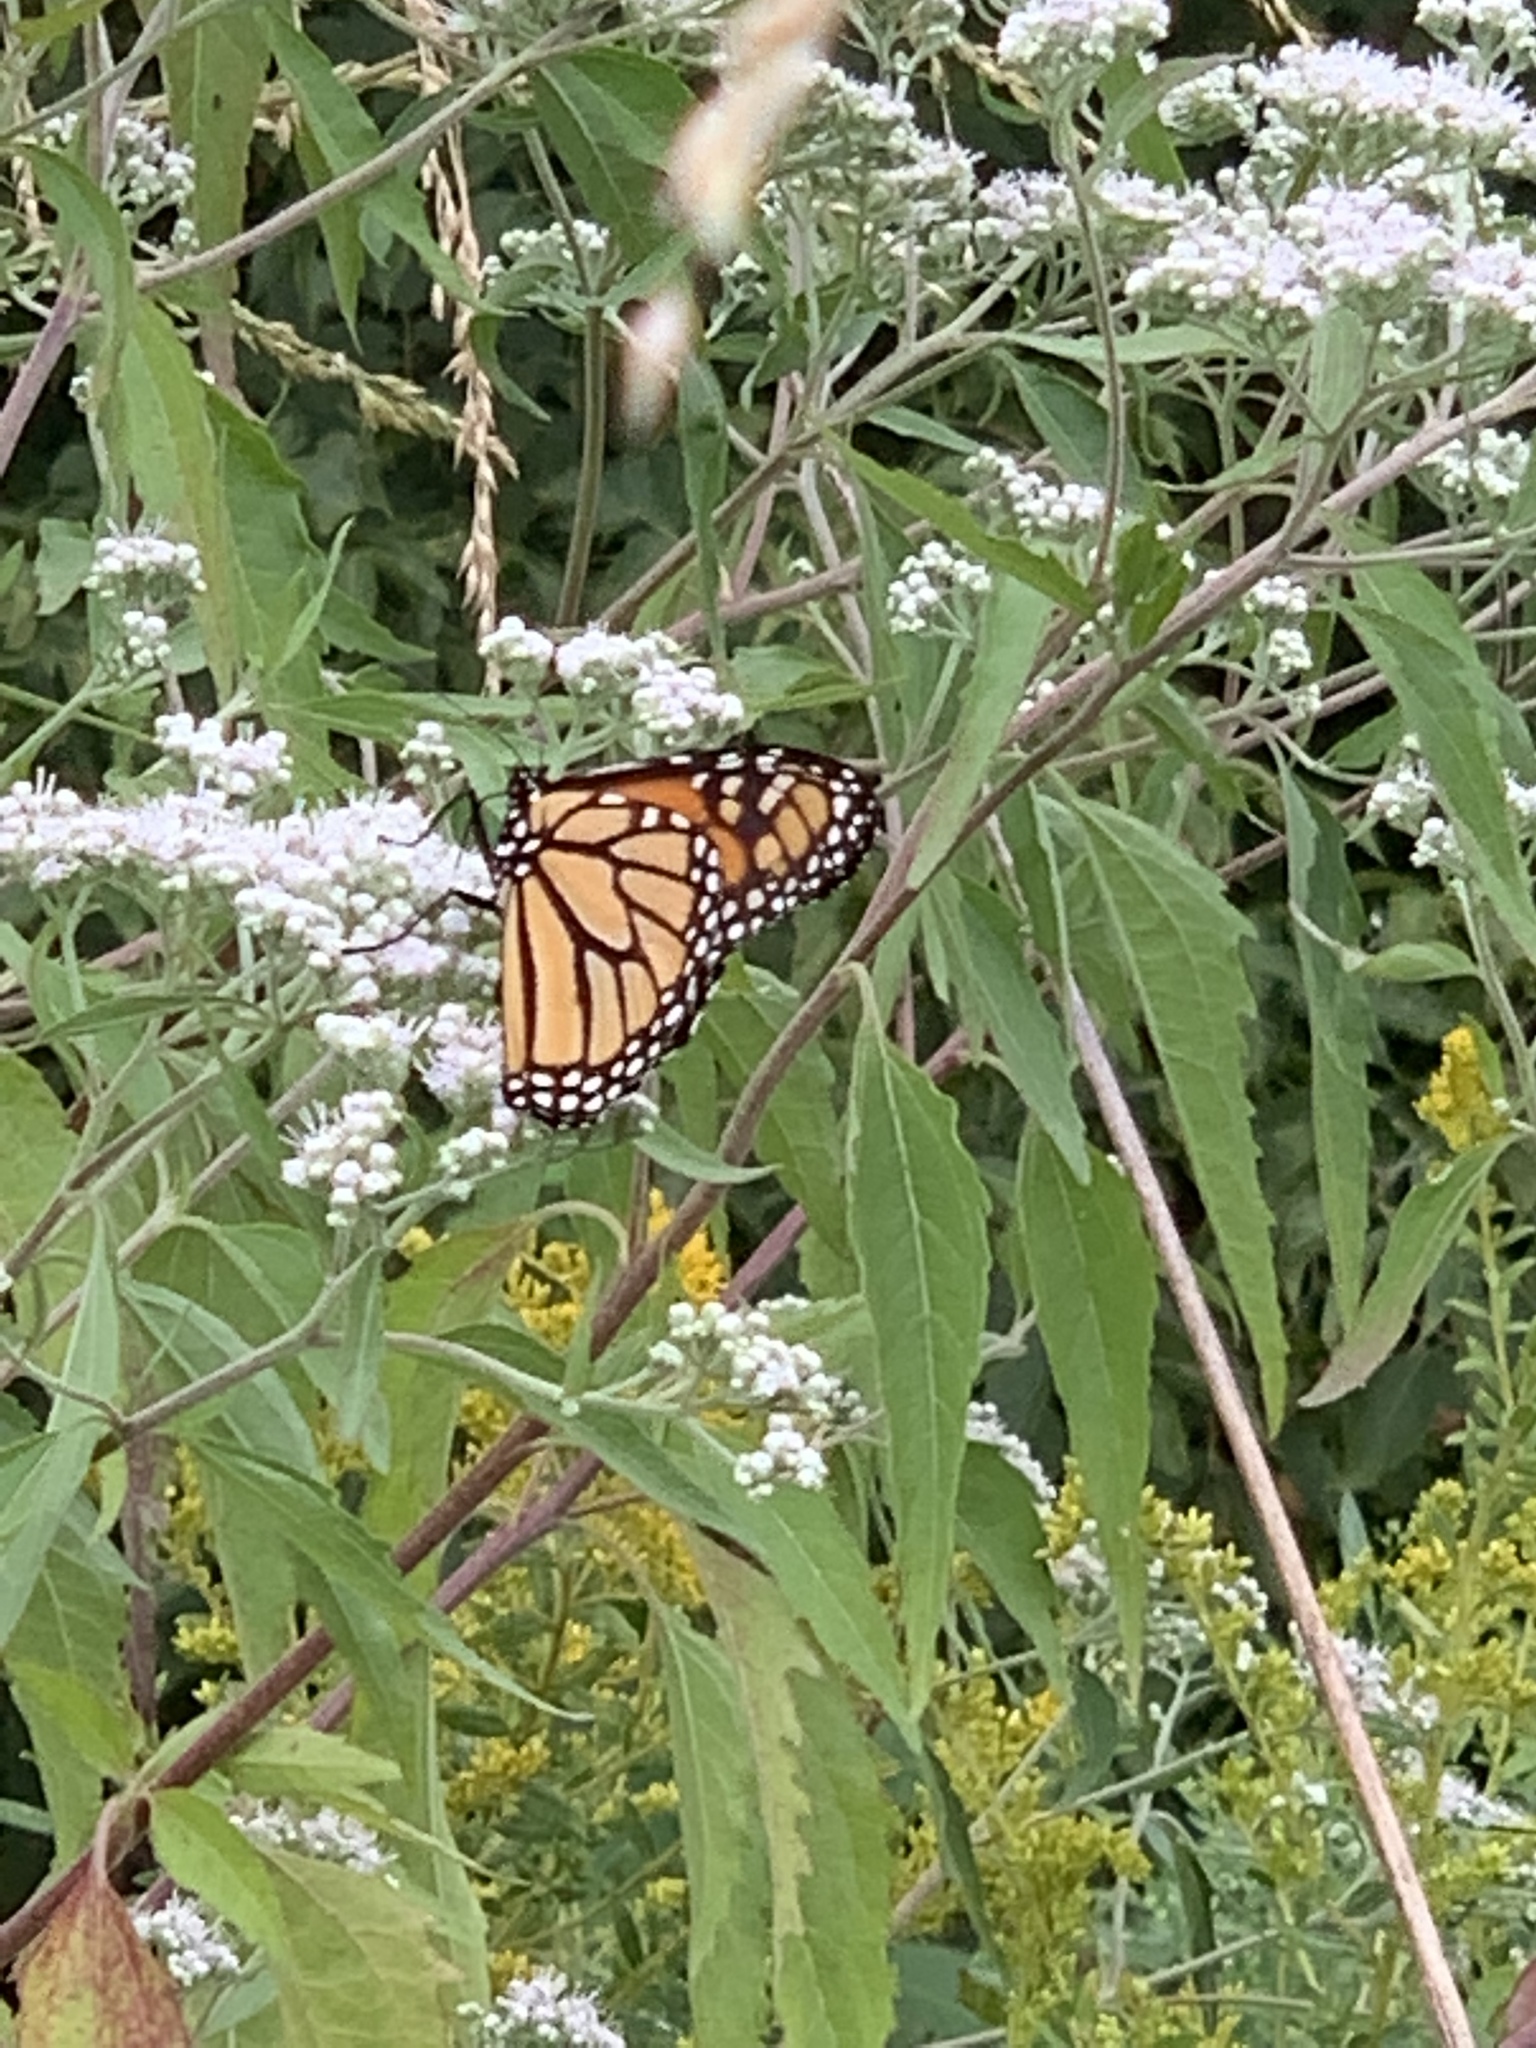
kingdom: Animalia
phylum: Arthropoda
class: Insecta
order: Lepidoptera
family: Nymphalidae
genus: Danaus
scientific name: Danaus plexippus
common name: Monarch
